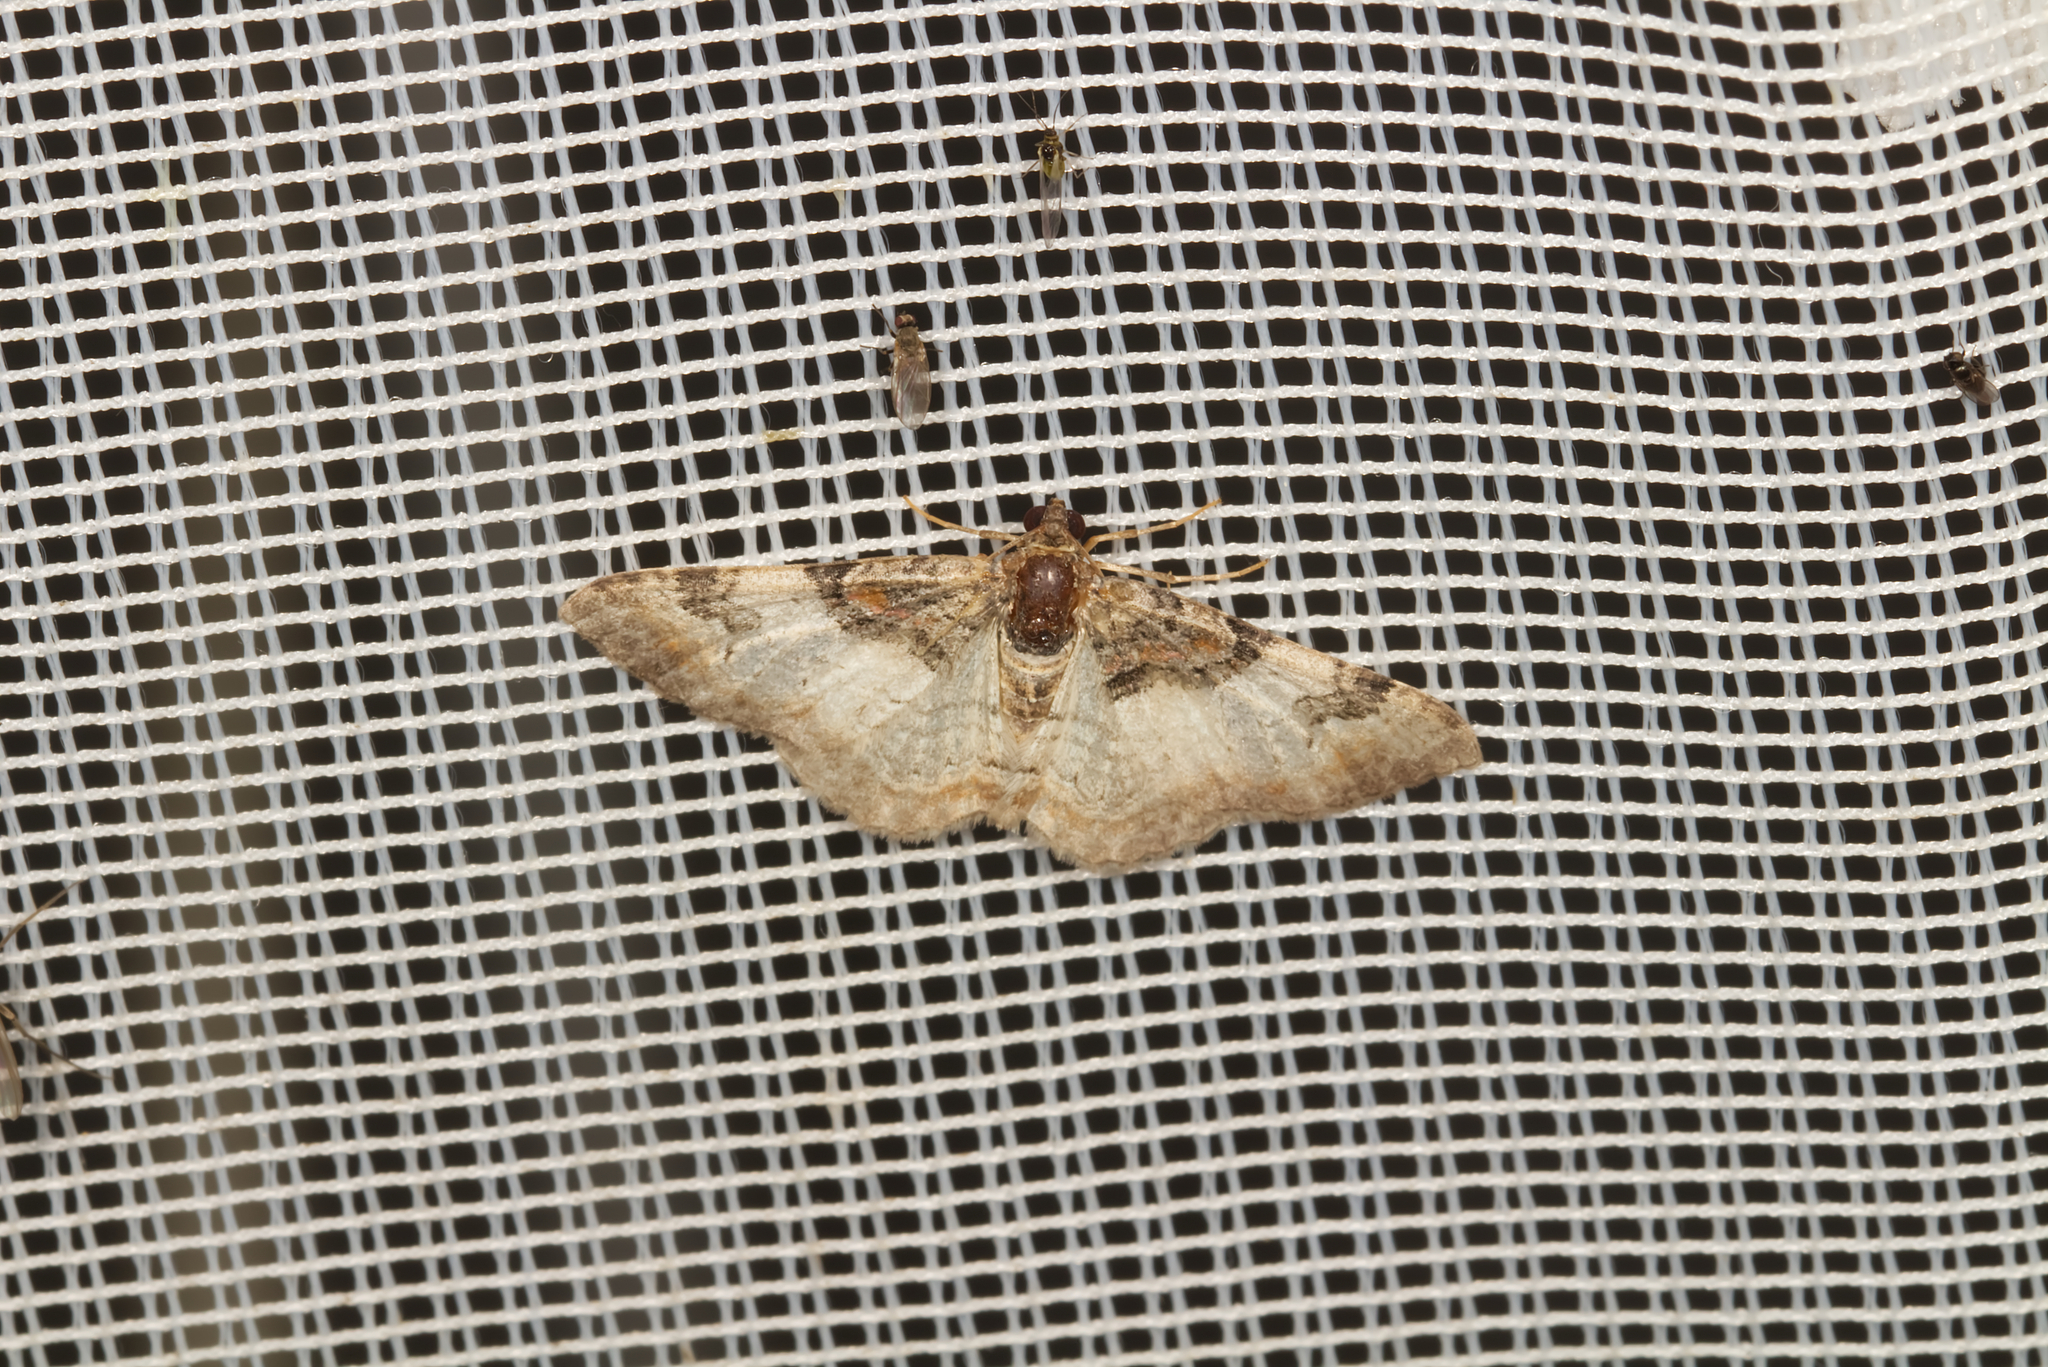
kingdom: Animalia
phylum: Arthropoda
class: Insecta
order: Lepidoptera
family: Geometridae
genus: Catarhoe
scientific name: Catarhoe cuculata
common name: Royal mantle
